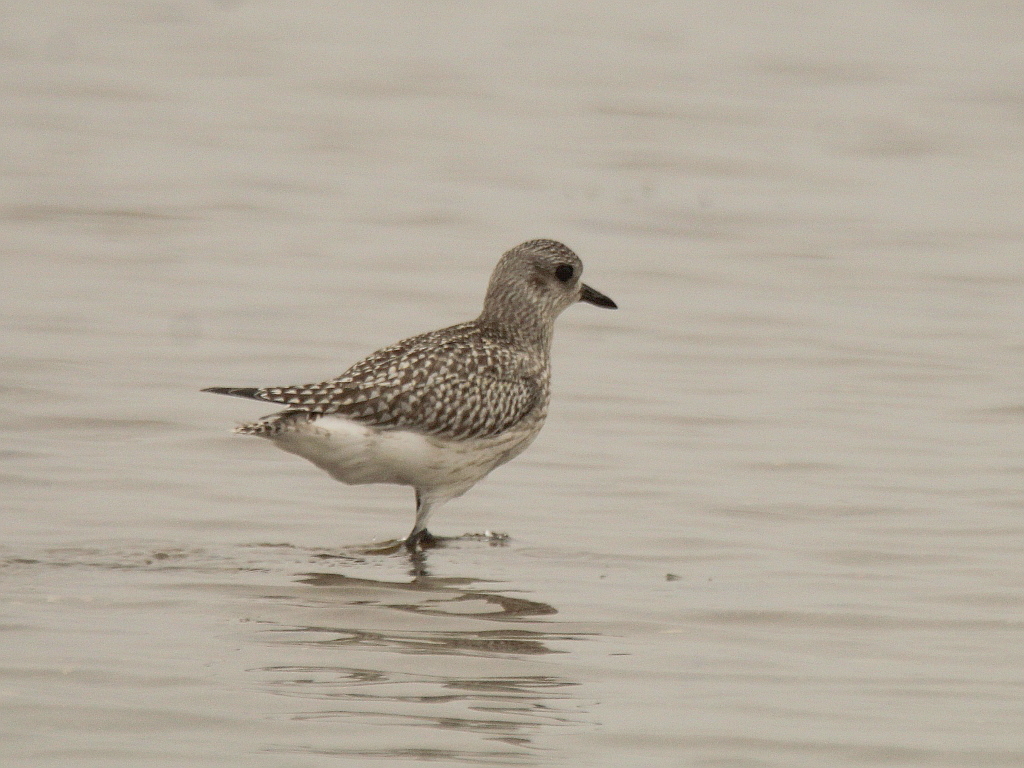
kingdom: Animalia
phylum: Chordata
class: Aves
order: Charadriiformes
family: Charadriidae
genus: Pluvialis
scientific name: Pluvialis squatarola
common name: Grey plover
